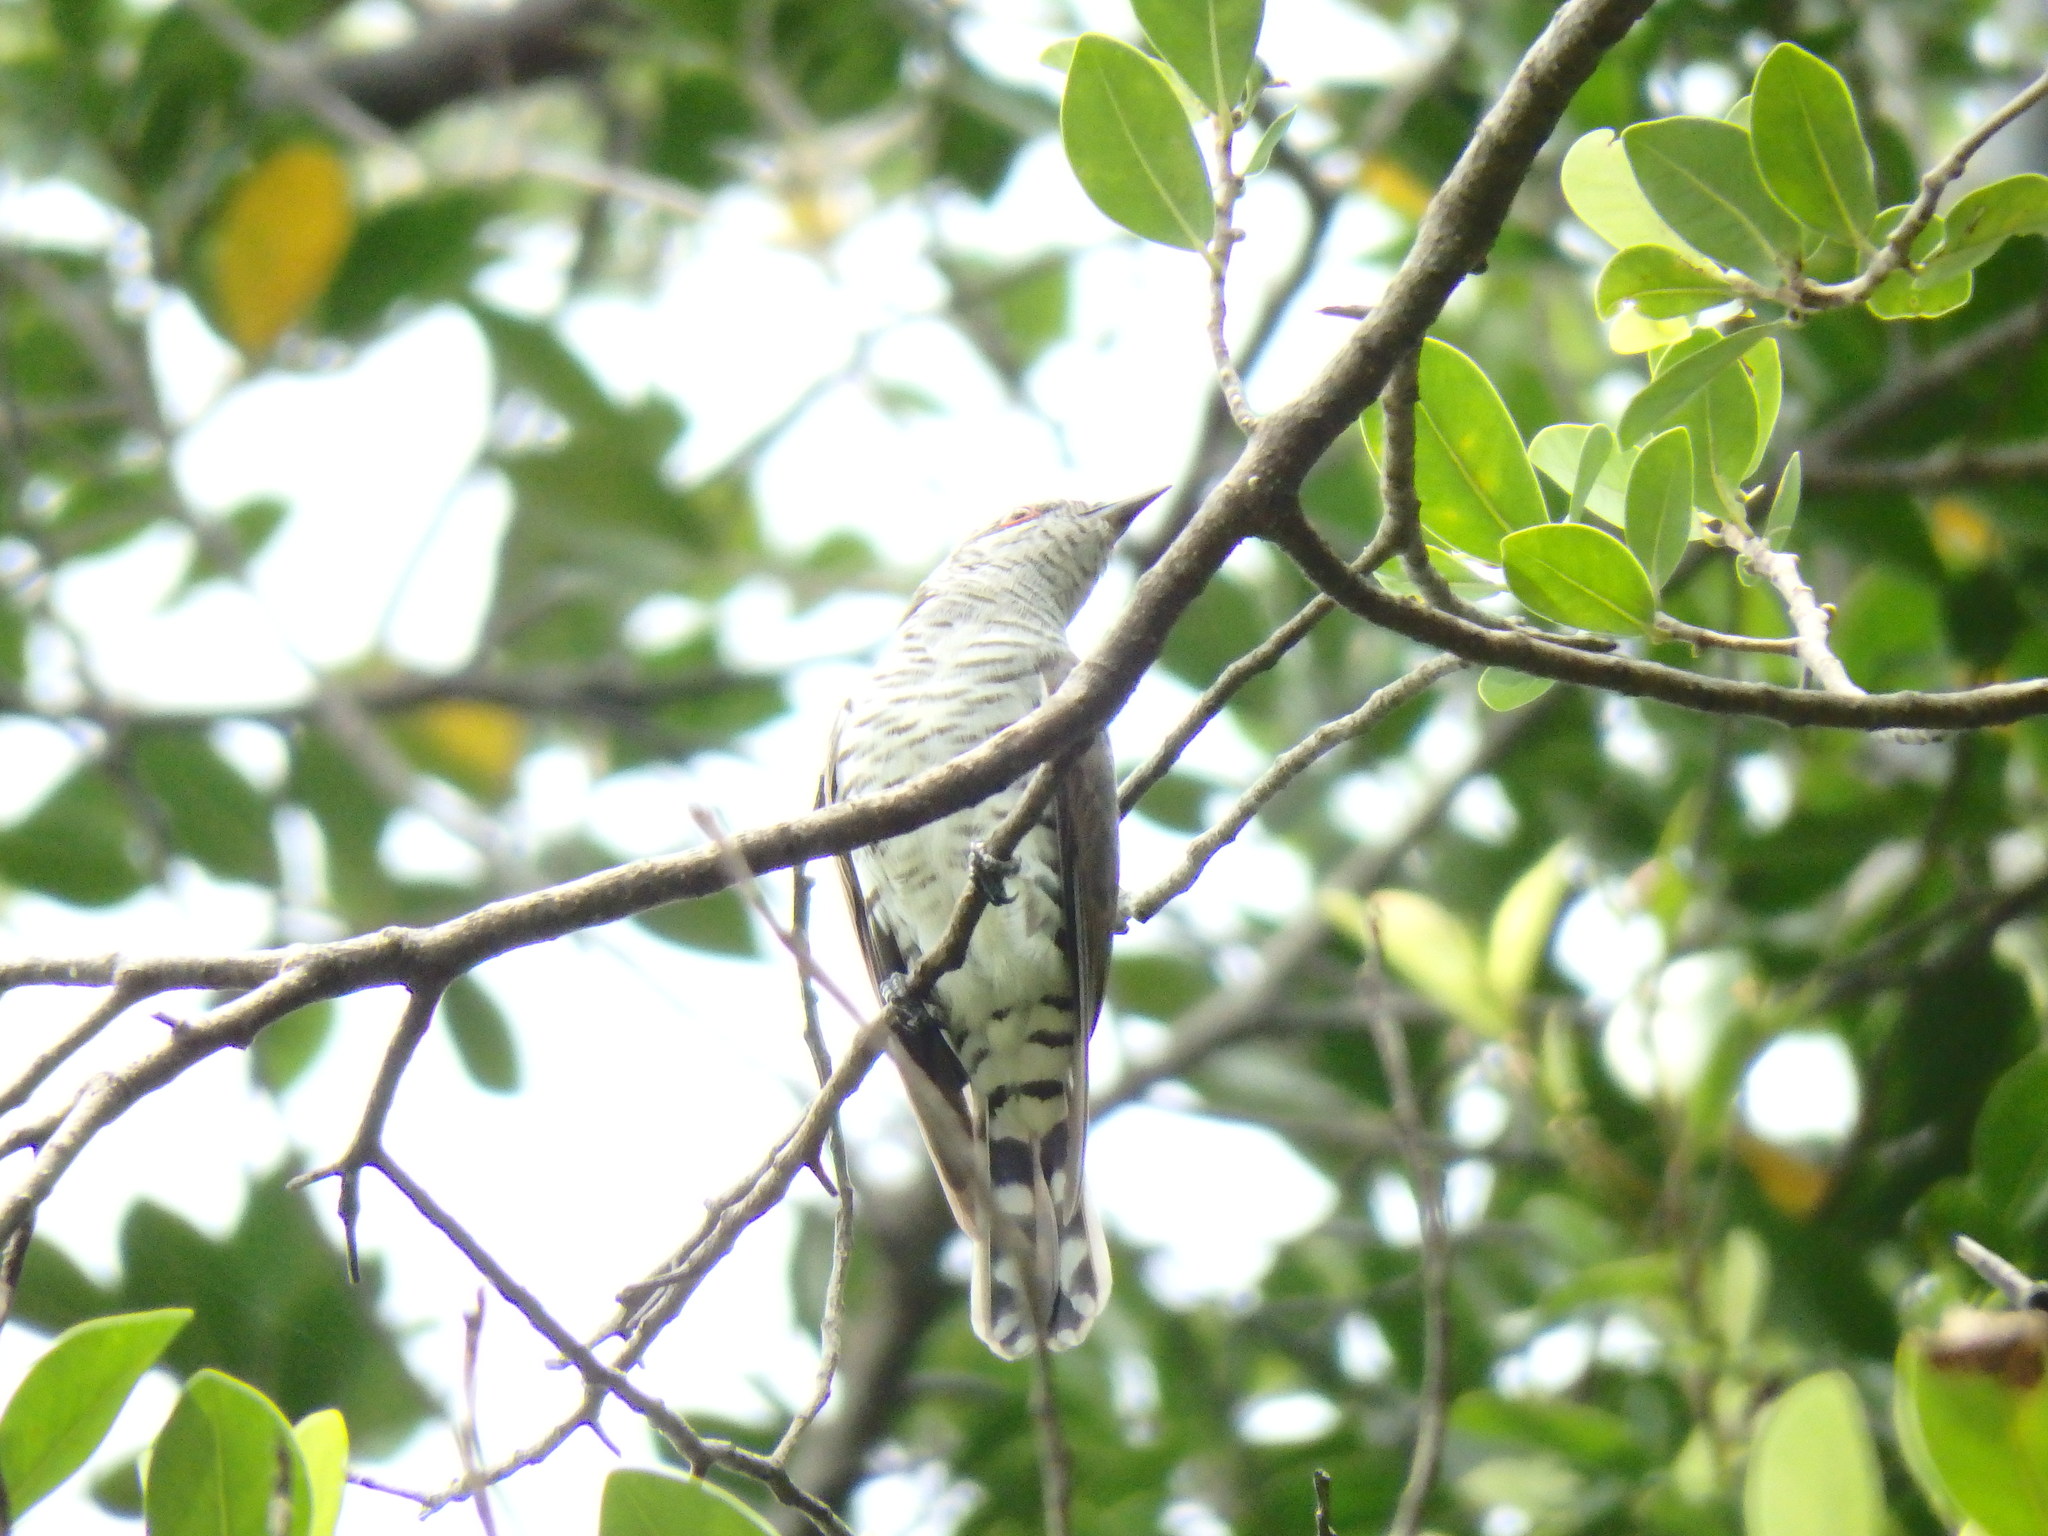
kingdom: Animalia
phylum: Chordata
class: Aves
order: Cuculiformes
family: Cuculidae
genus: Chrysococcyx
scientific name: Chrysococcyx minutillus
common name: Little bronze cuckoo
